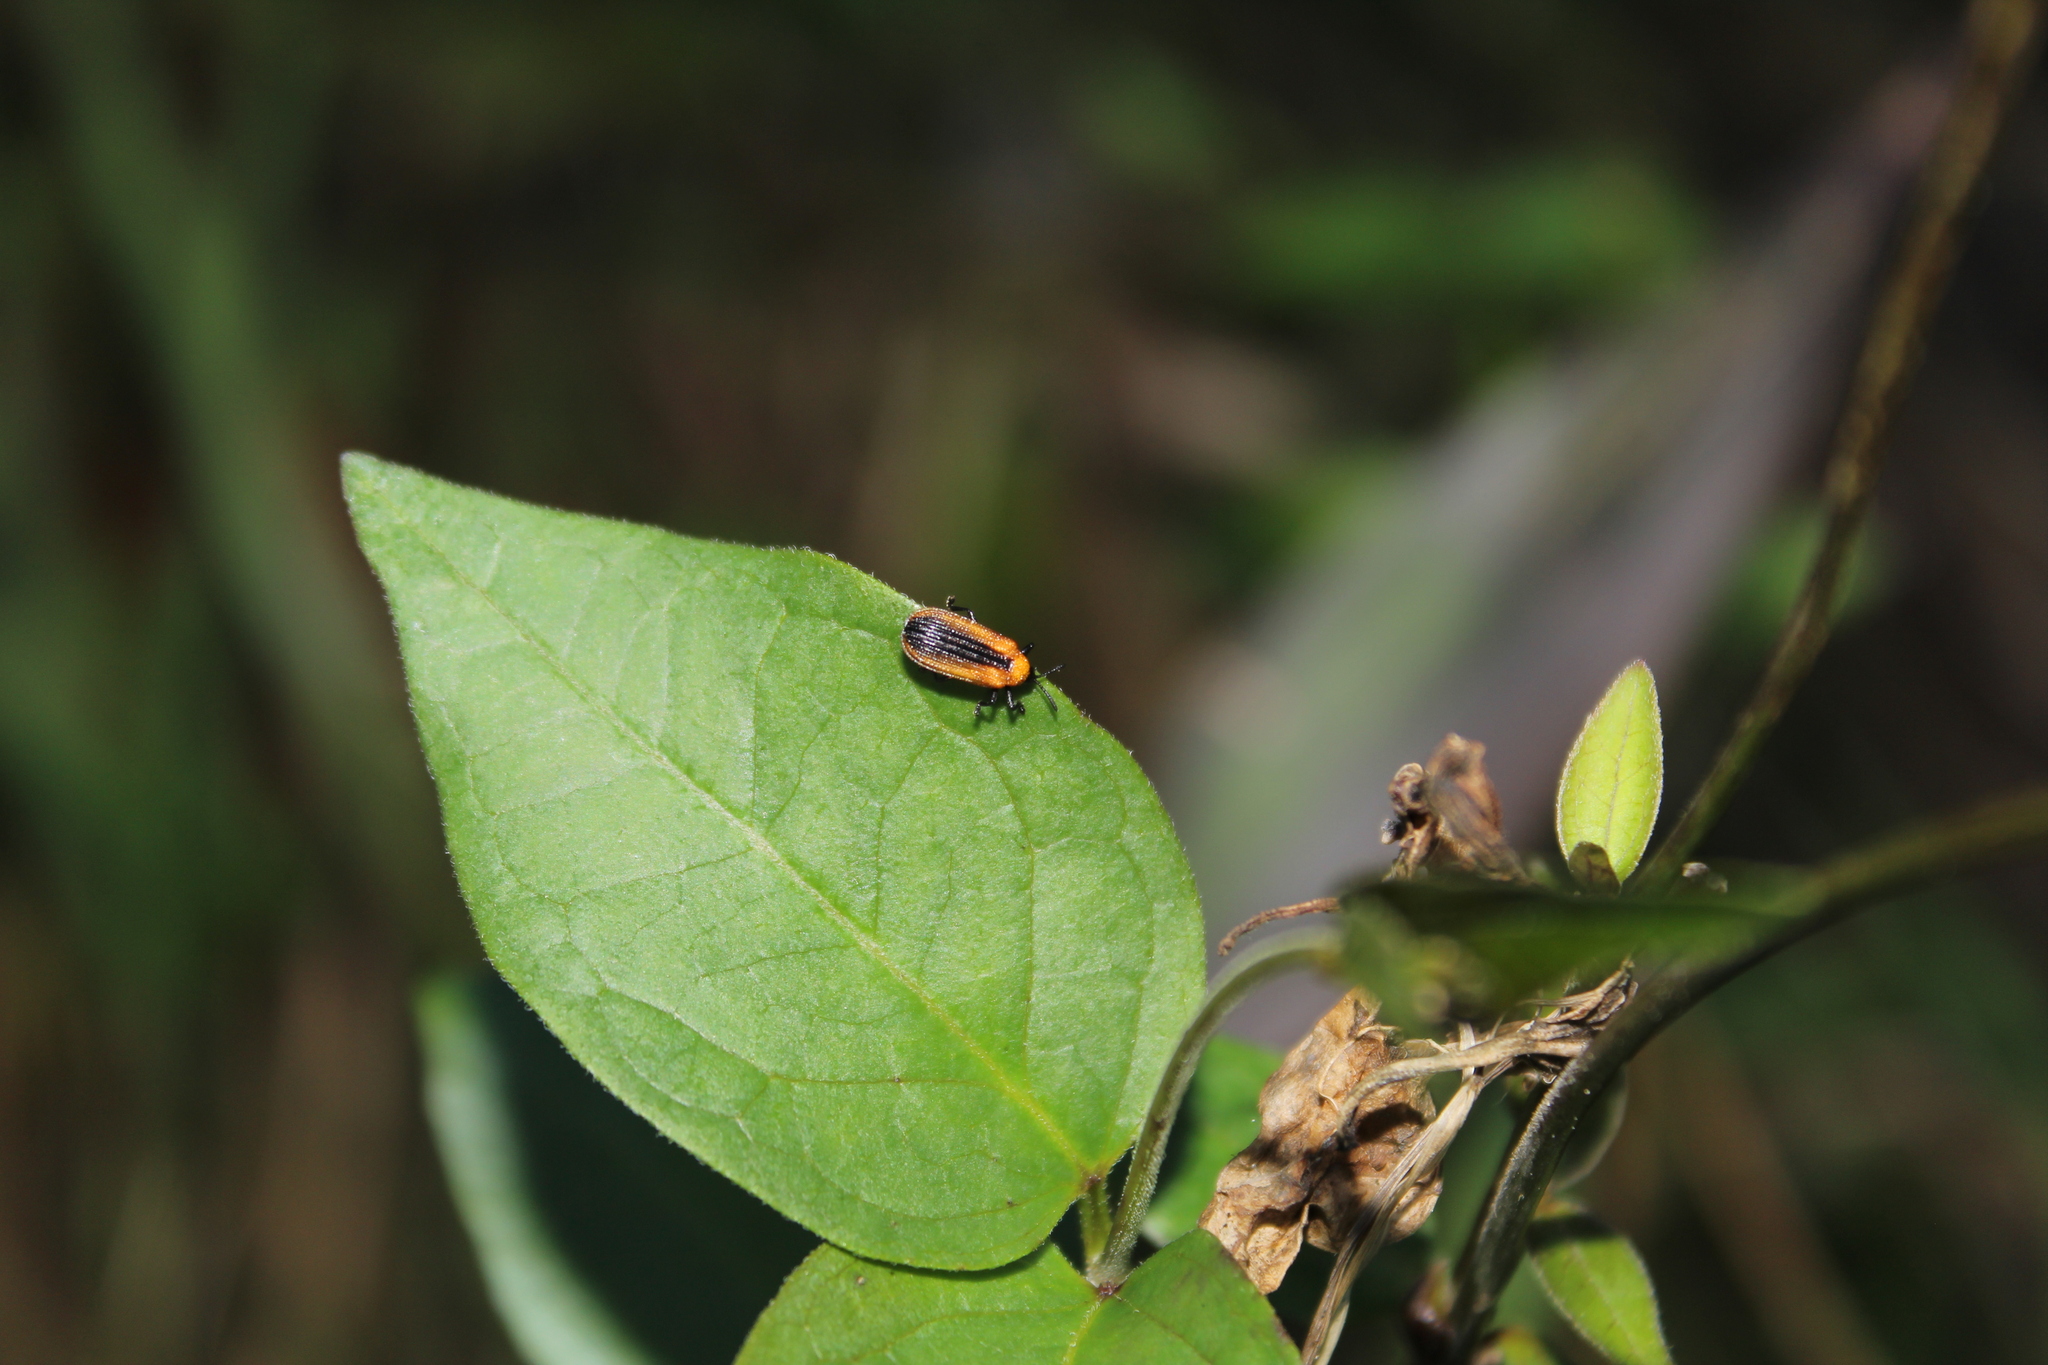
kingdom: Animalia
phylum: Arthropoda
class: Insecta
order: Coleoptera
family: Chrysomelidae
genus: Odontota
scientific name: Odontota dorsalis
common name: Locust leaf-miner beetle
